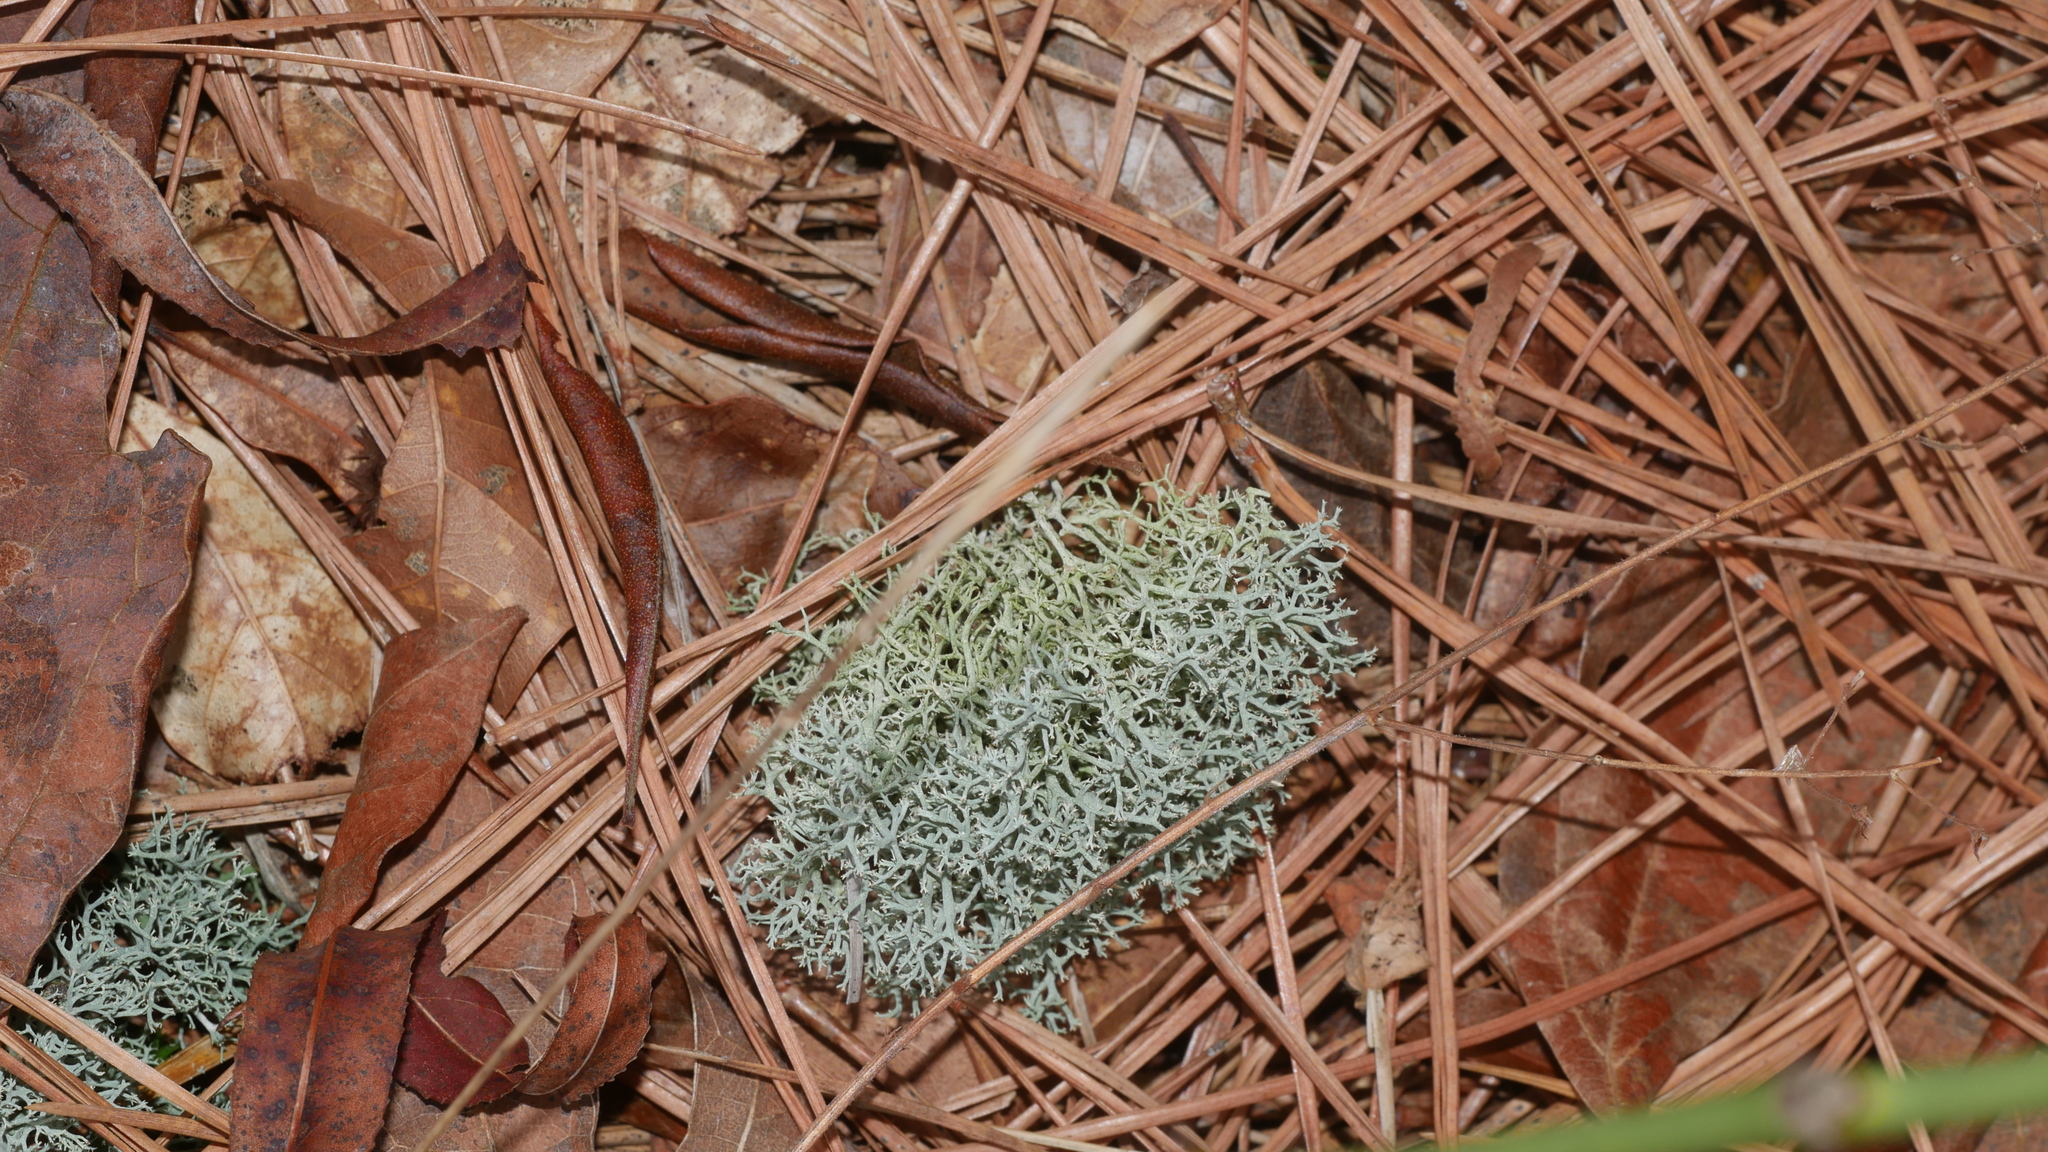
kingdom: Fungi
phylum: Ascomycota
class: Lecanoromycetes
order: Lecanorales
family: Cladoniaceae
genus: Cladonia
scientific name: Cladonia subtenuis
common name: Dixie reindeer lichen
